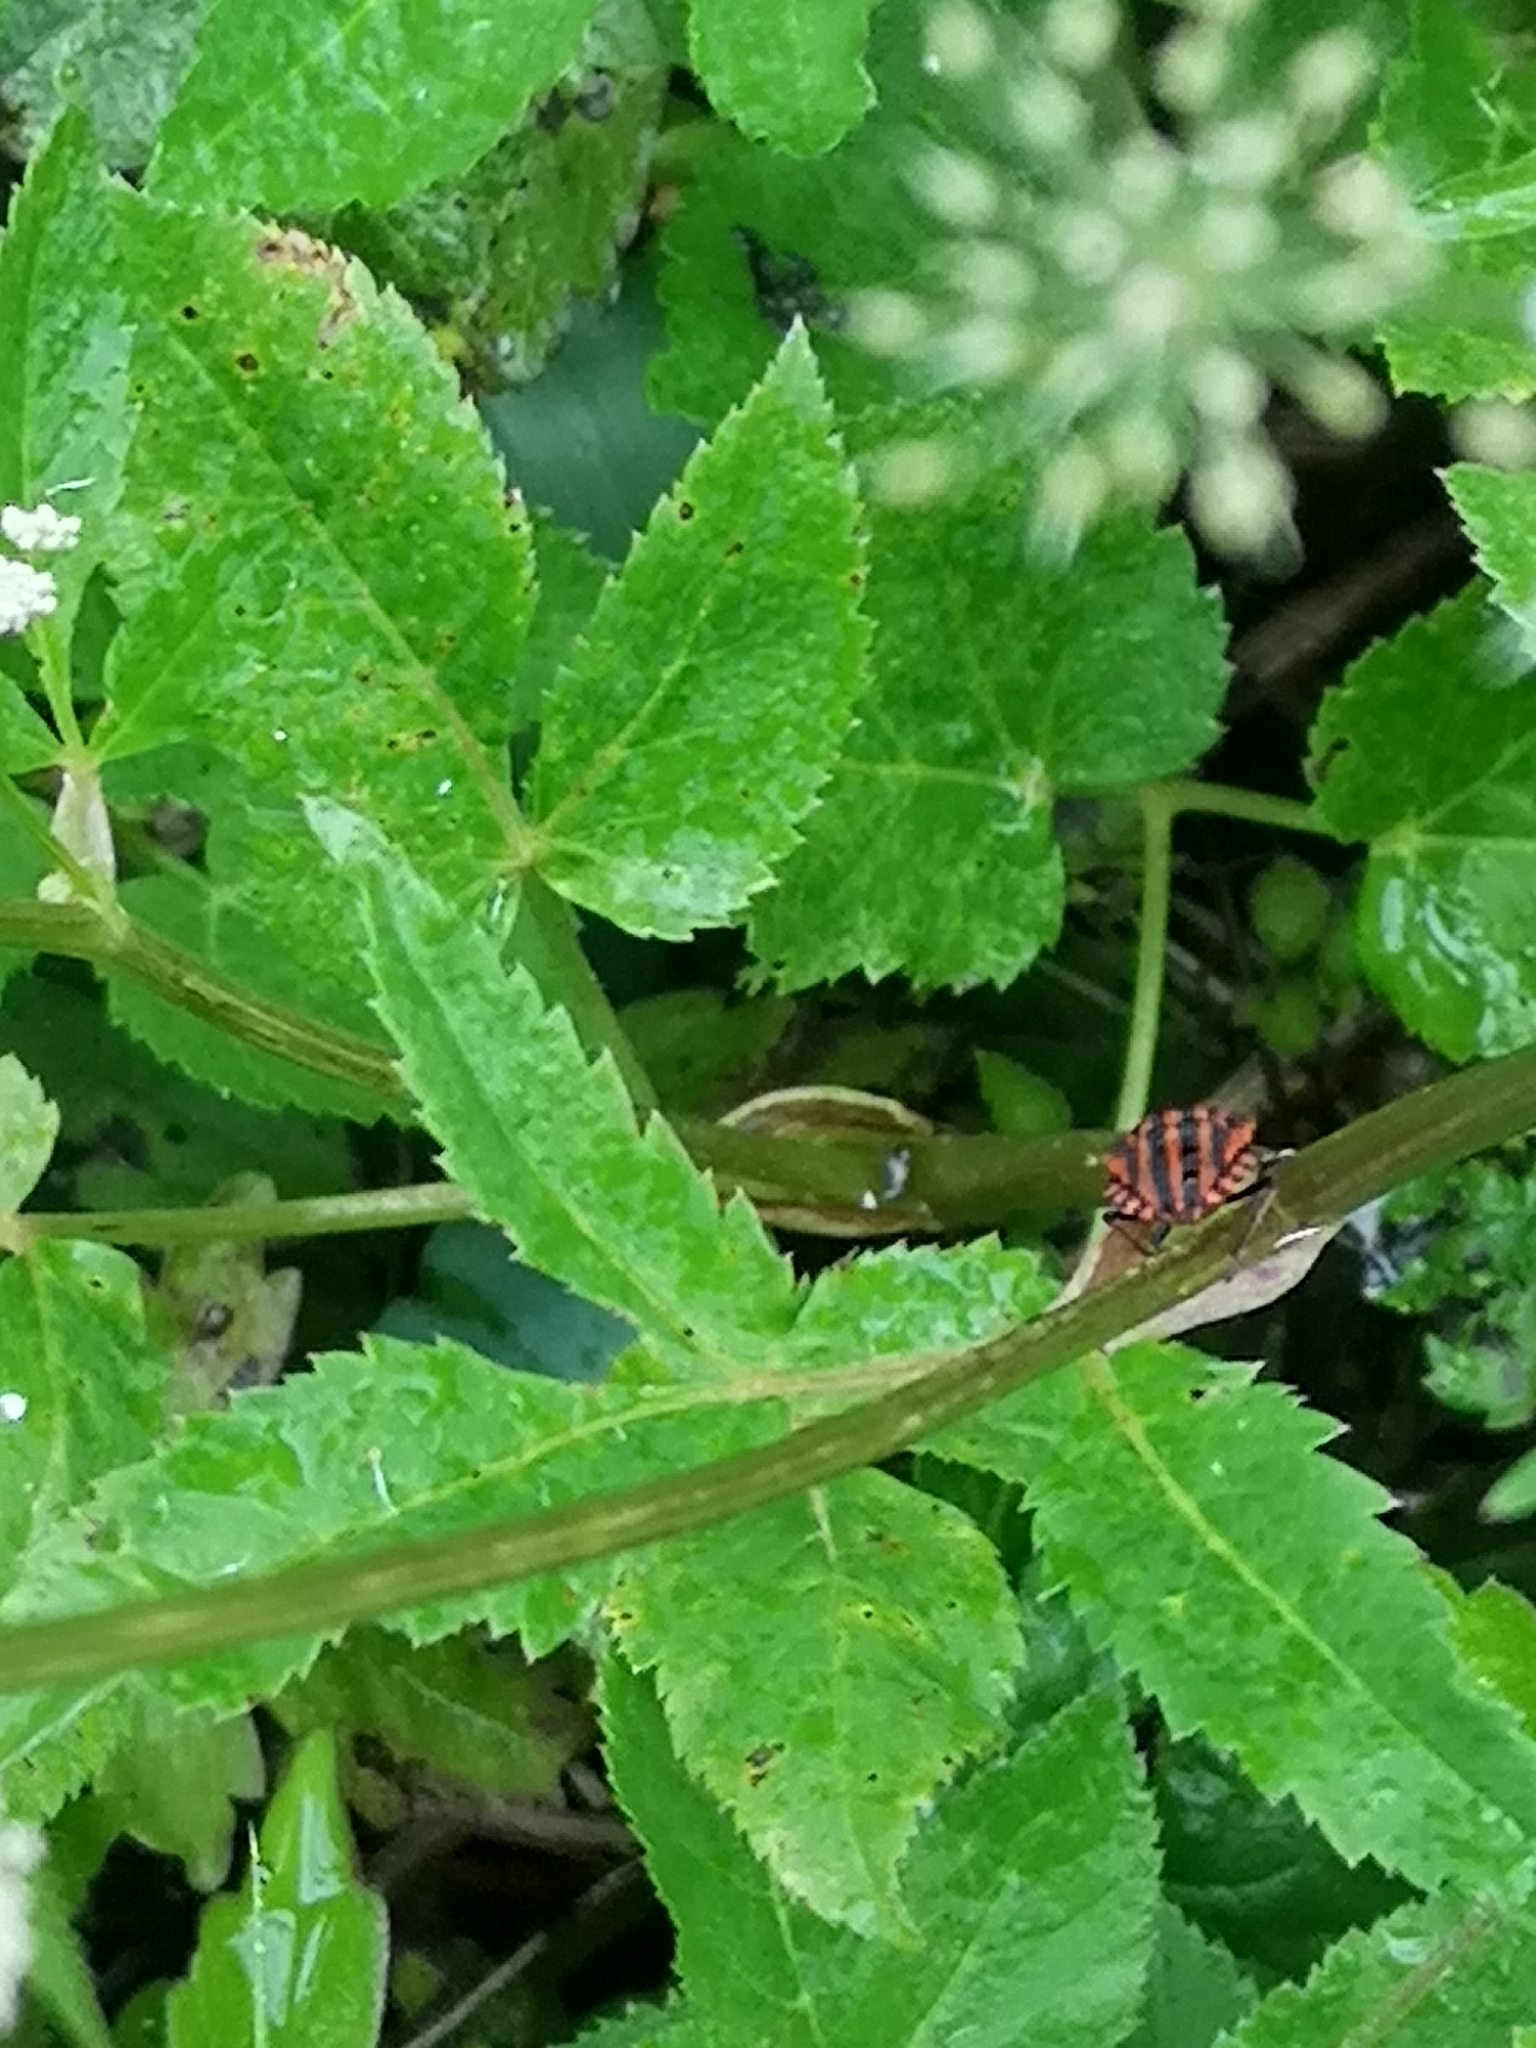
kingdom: Animalia
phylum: Arthropoda
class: Insecta
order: Hemiptera
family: Pentatomidae
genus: Graphosoma
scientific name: Graphosoma italicum
